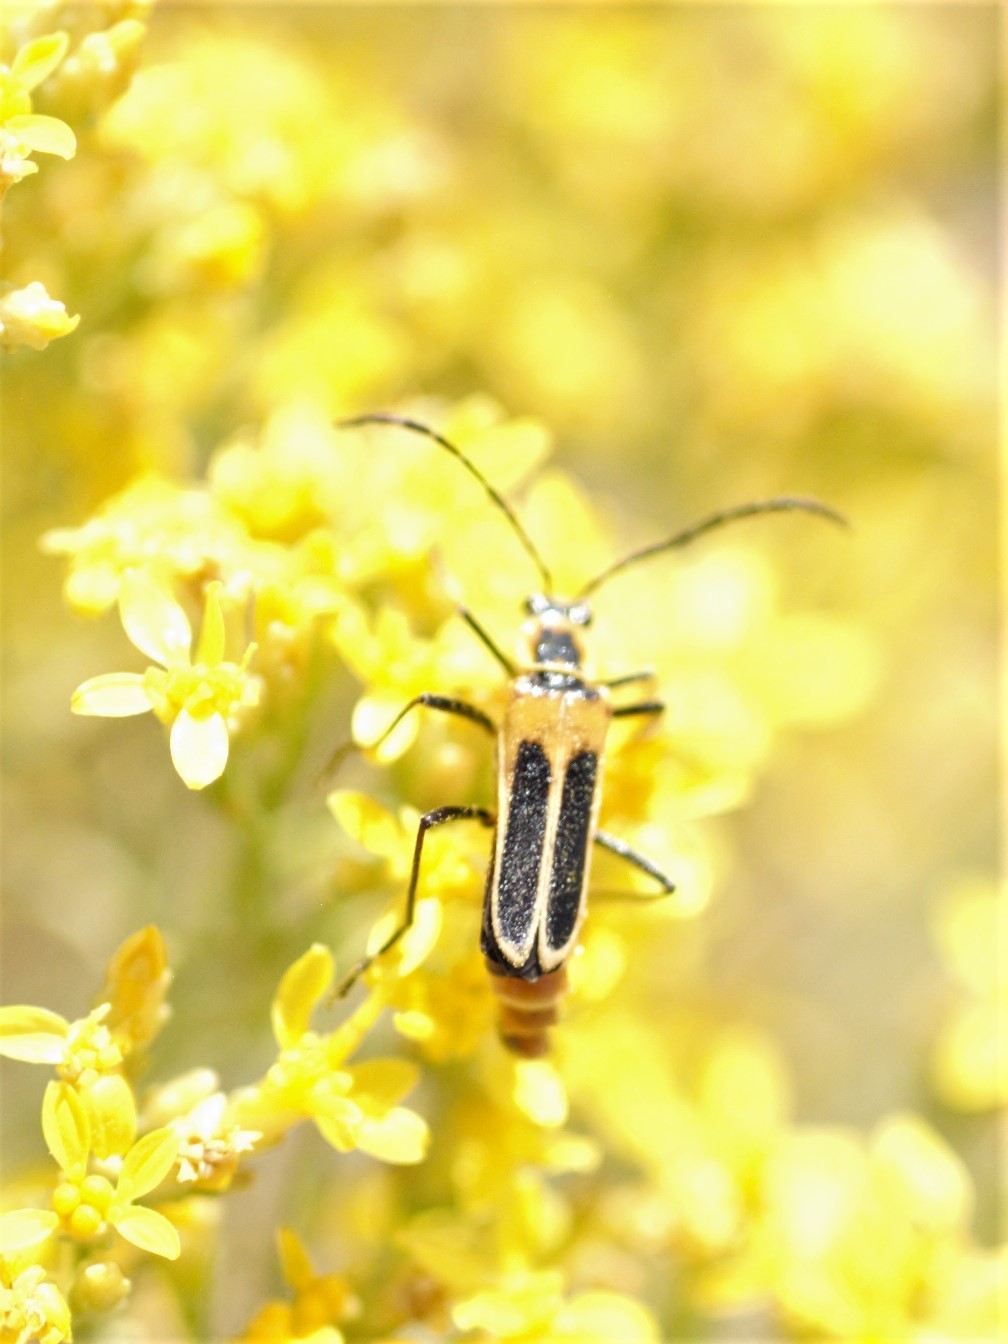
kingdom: Animalia
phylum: Arthropoda
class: Insecta
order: Coleoptera
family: Cantharidae
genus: Chauliognathus
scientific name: Chauliognathus lewisi
